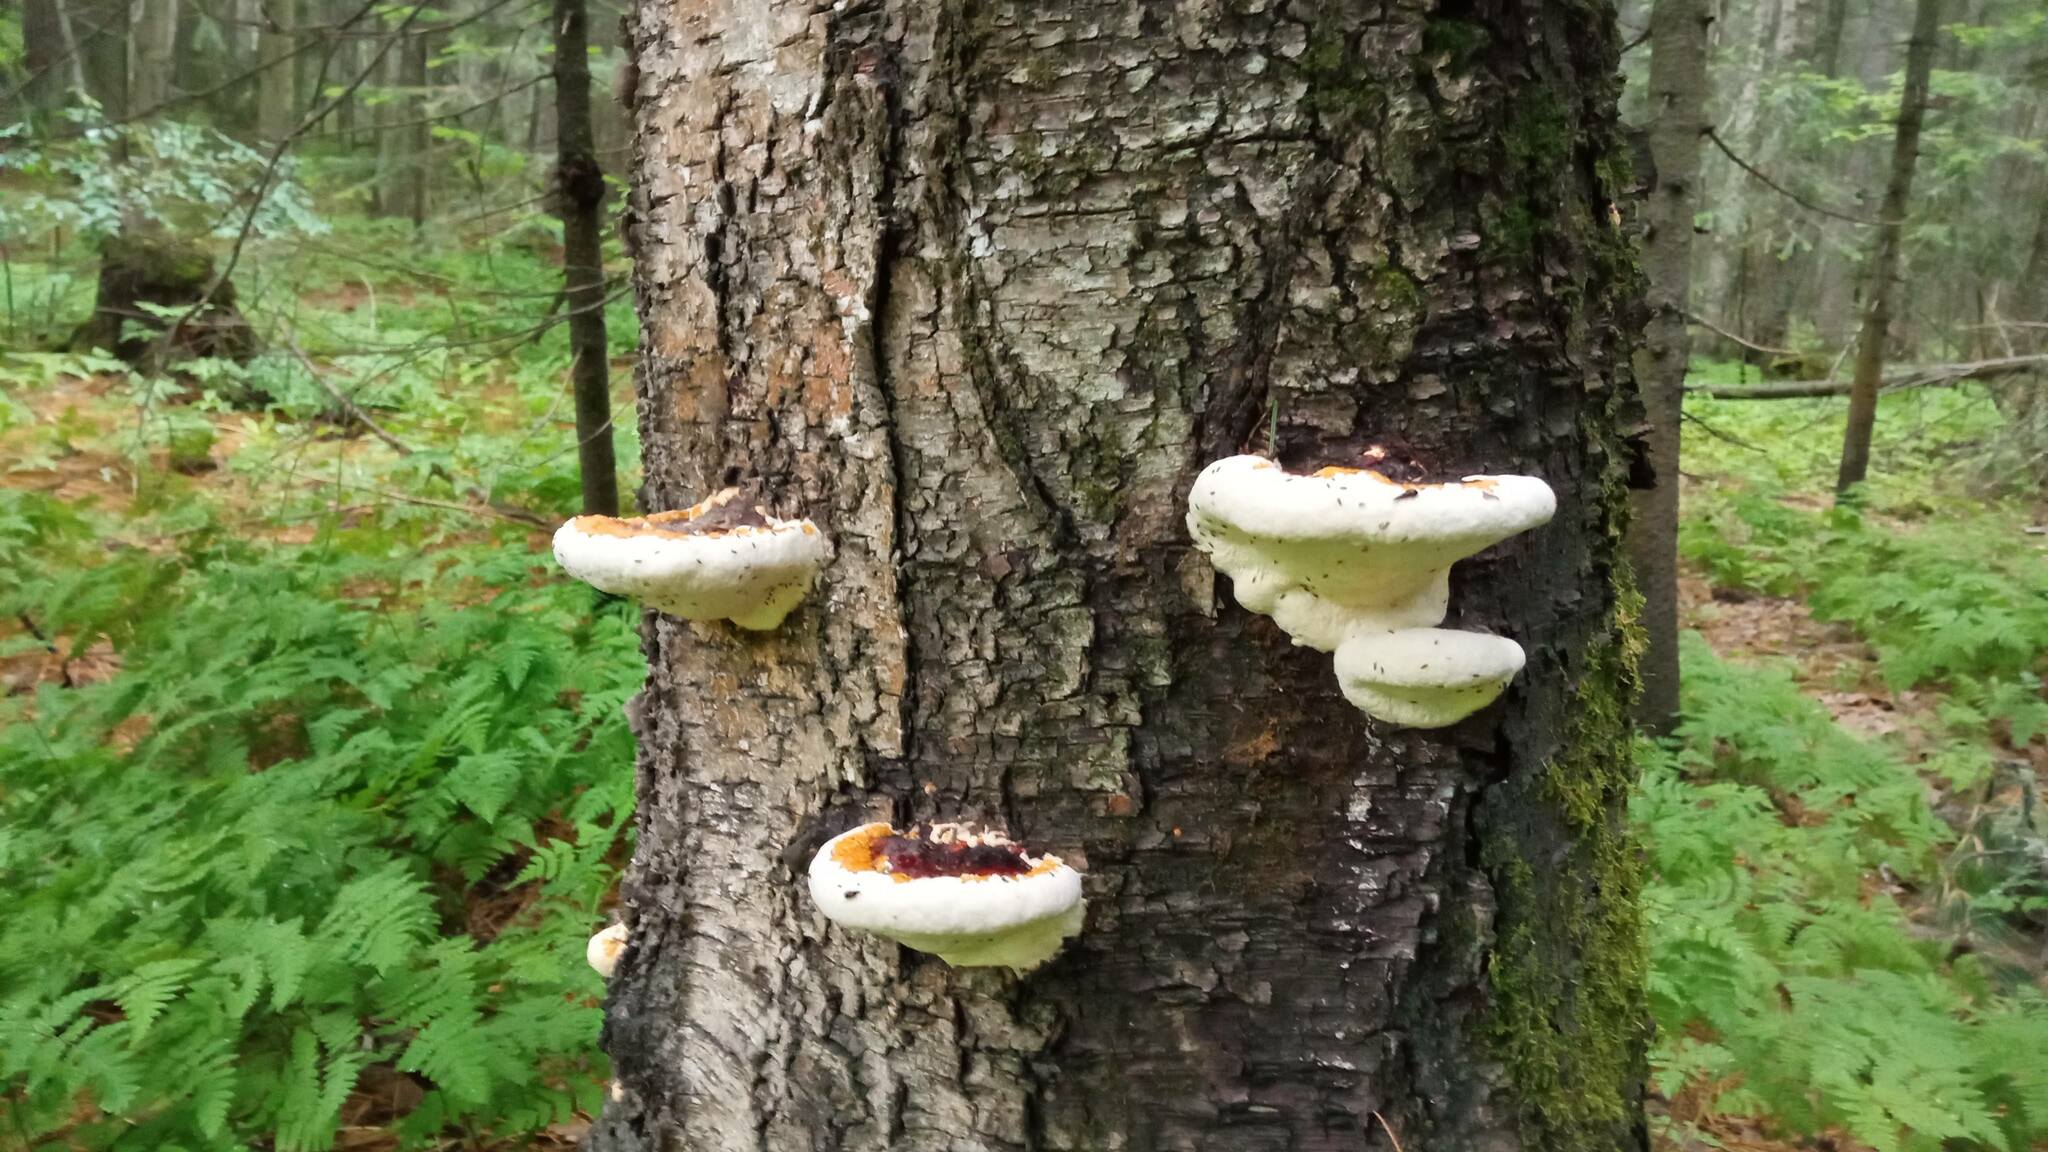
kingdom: Fungi
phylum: Basidiomycota
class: Agaricomycetes
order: Polyporales
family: Fomitopsidaceae
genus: Fomitopsis
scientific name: Fomitopsis pinicola
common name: Red-belted bracket
